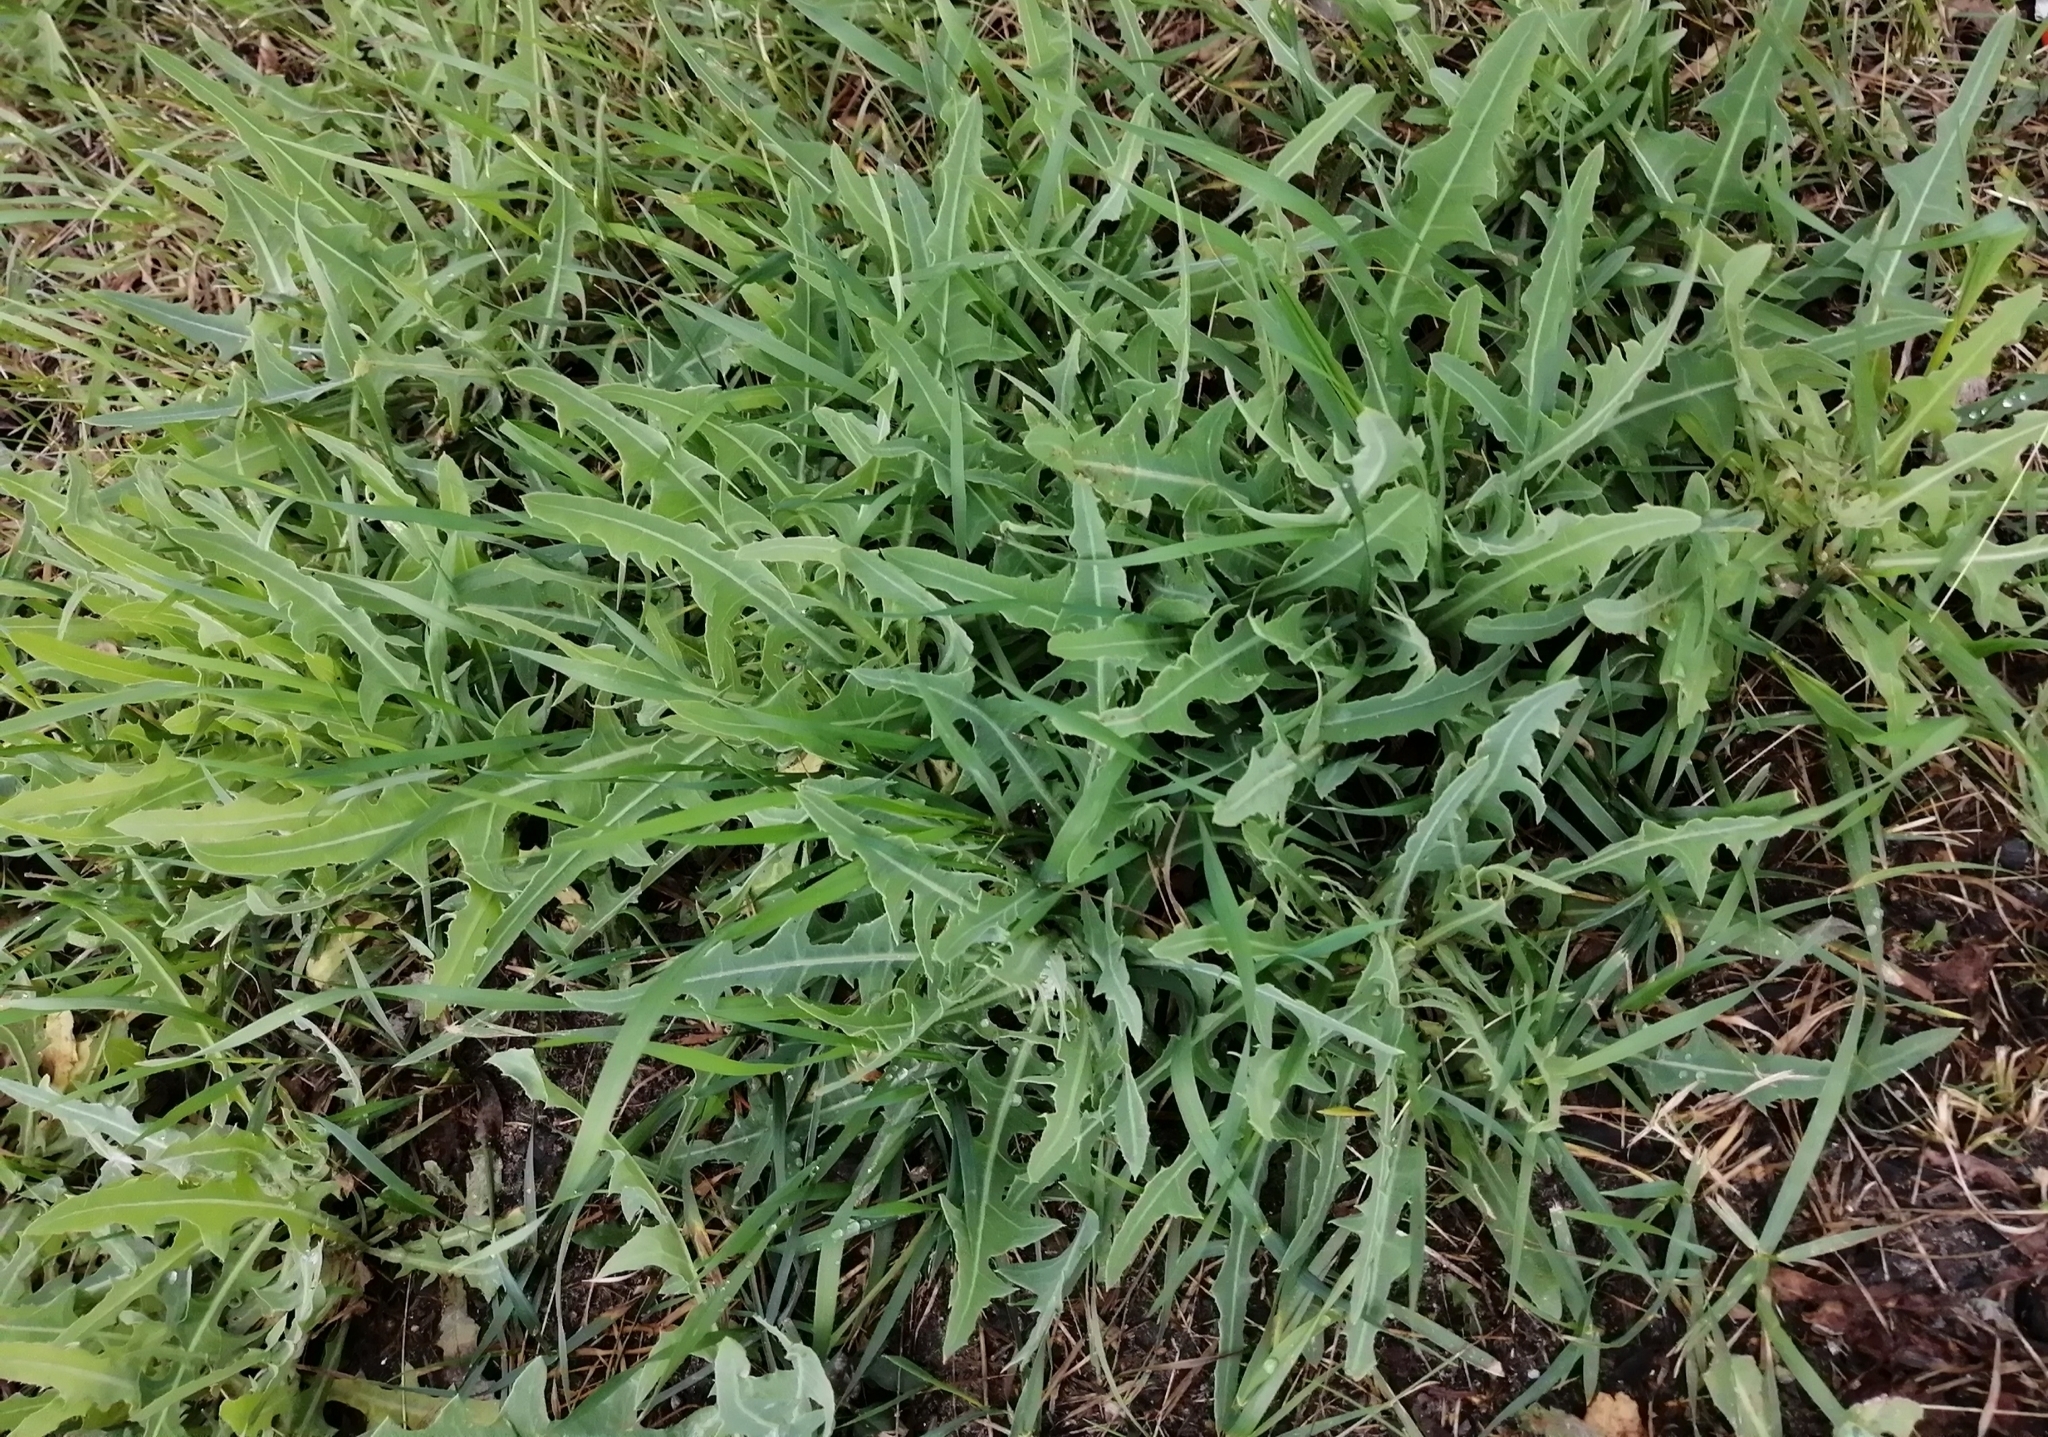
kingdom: Plantae
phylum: Tracheophyta
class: Magnoliopsida
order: Asterales
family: Asteraceae
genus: Sonchus
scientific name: Sonchus arvensis
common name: Perennial sow-thistle
